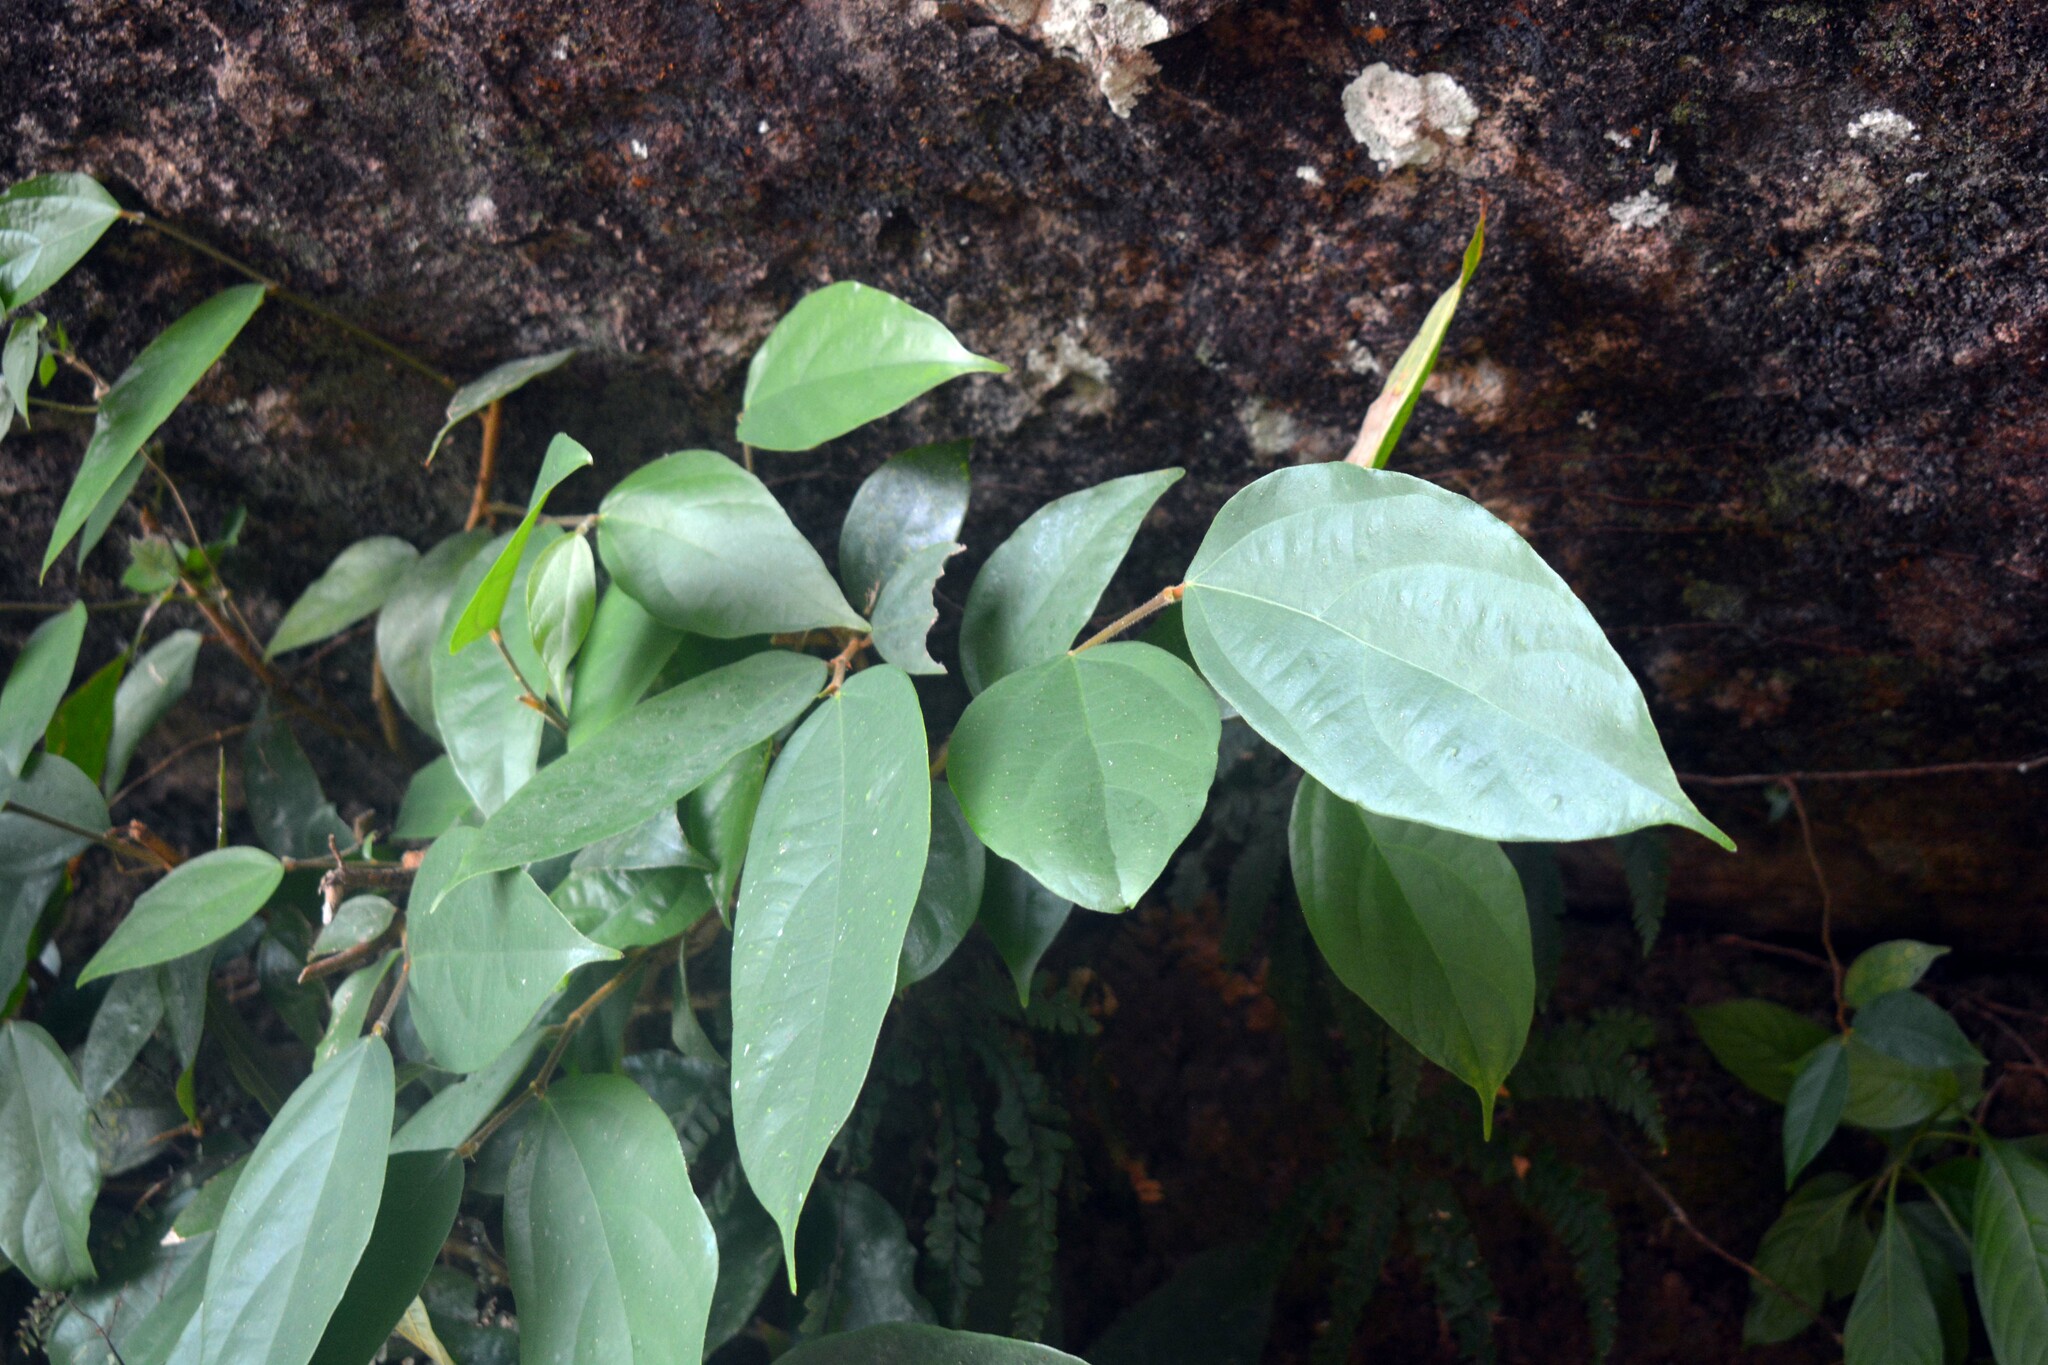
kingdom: Plantae
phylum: Tracheophyta
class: Magnoliopsida
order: Malvales
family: Malvaceae
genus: Pterospermum
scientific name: Pterospermum javanicum
